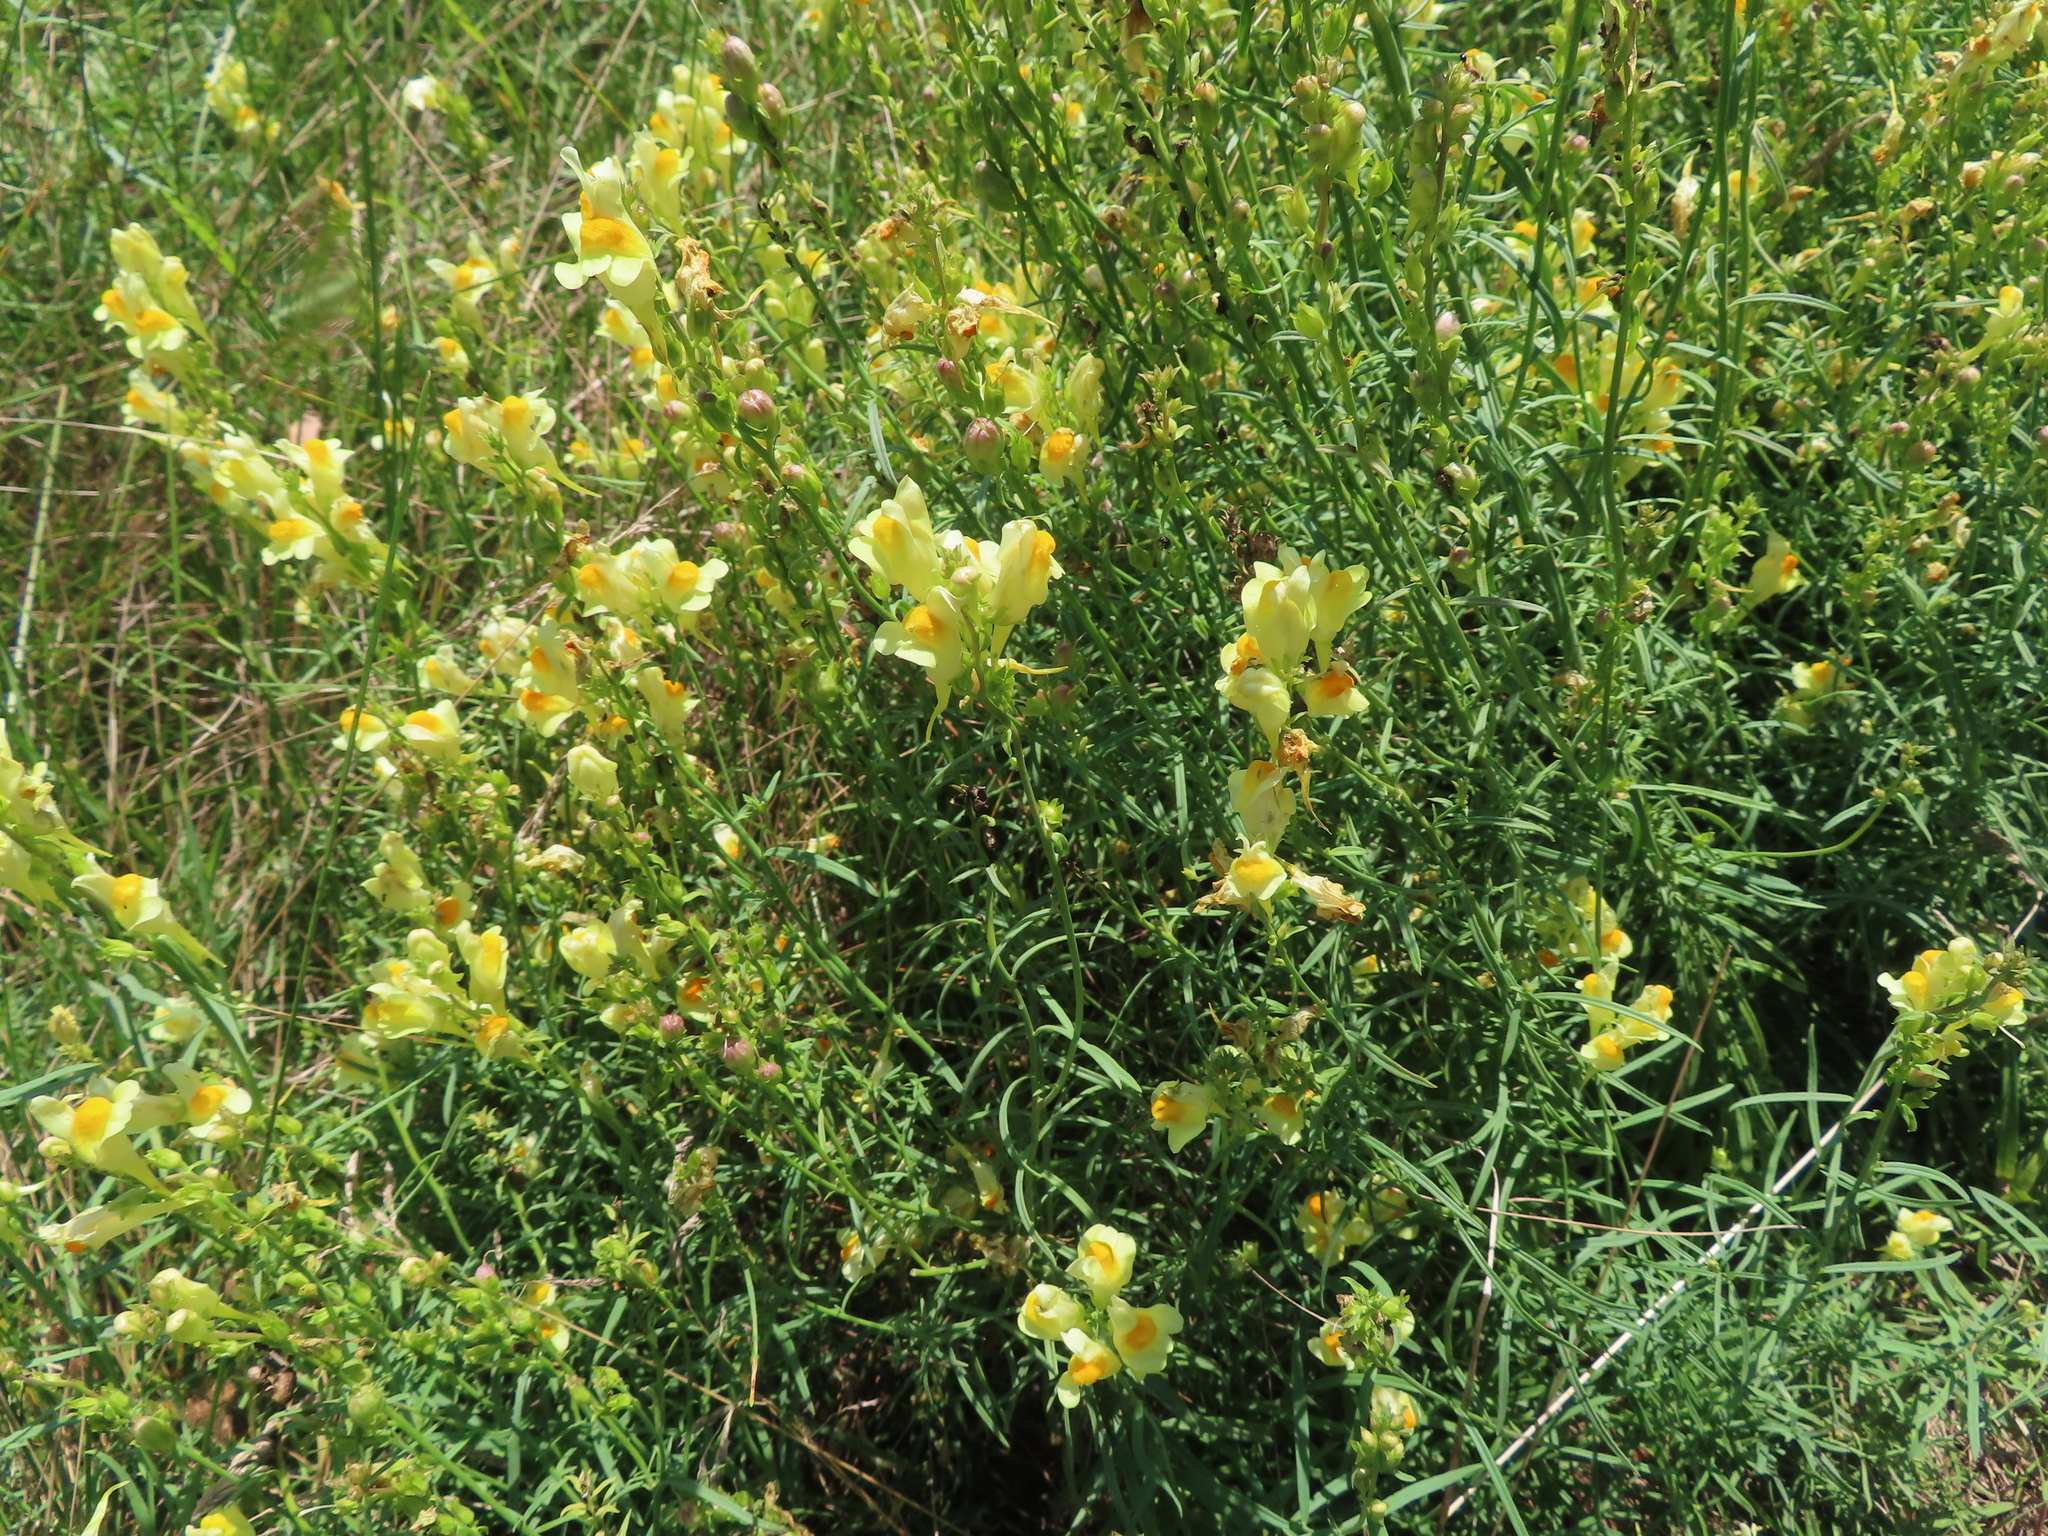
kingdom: Plantae
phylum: Tracheophyta
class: Magnoliopsida
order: Lamiales
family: Plantaginaceae
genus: Linaria
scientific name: Linaria vulgaris
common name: Butter and eggs
